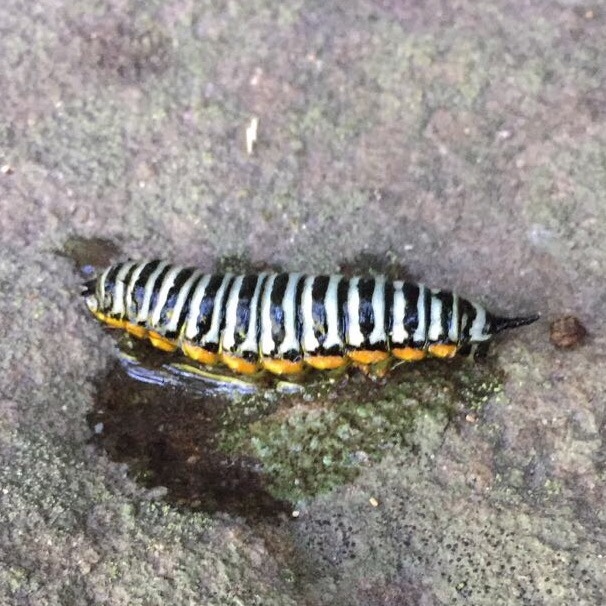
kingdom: Animalia
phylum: Arthropoda
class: Insecta
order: Lepidoptera
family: Saturniidae
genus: Pseudaphelia
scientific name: Pseudaphelia apollinaris
